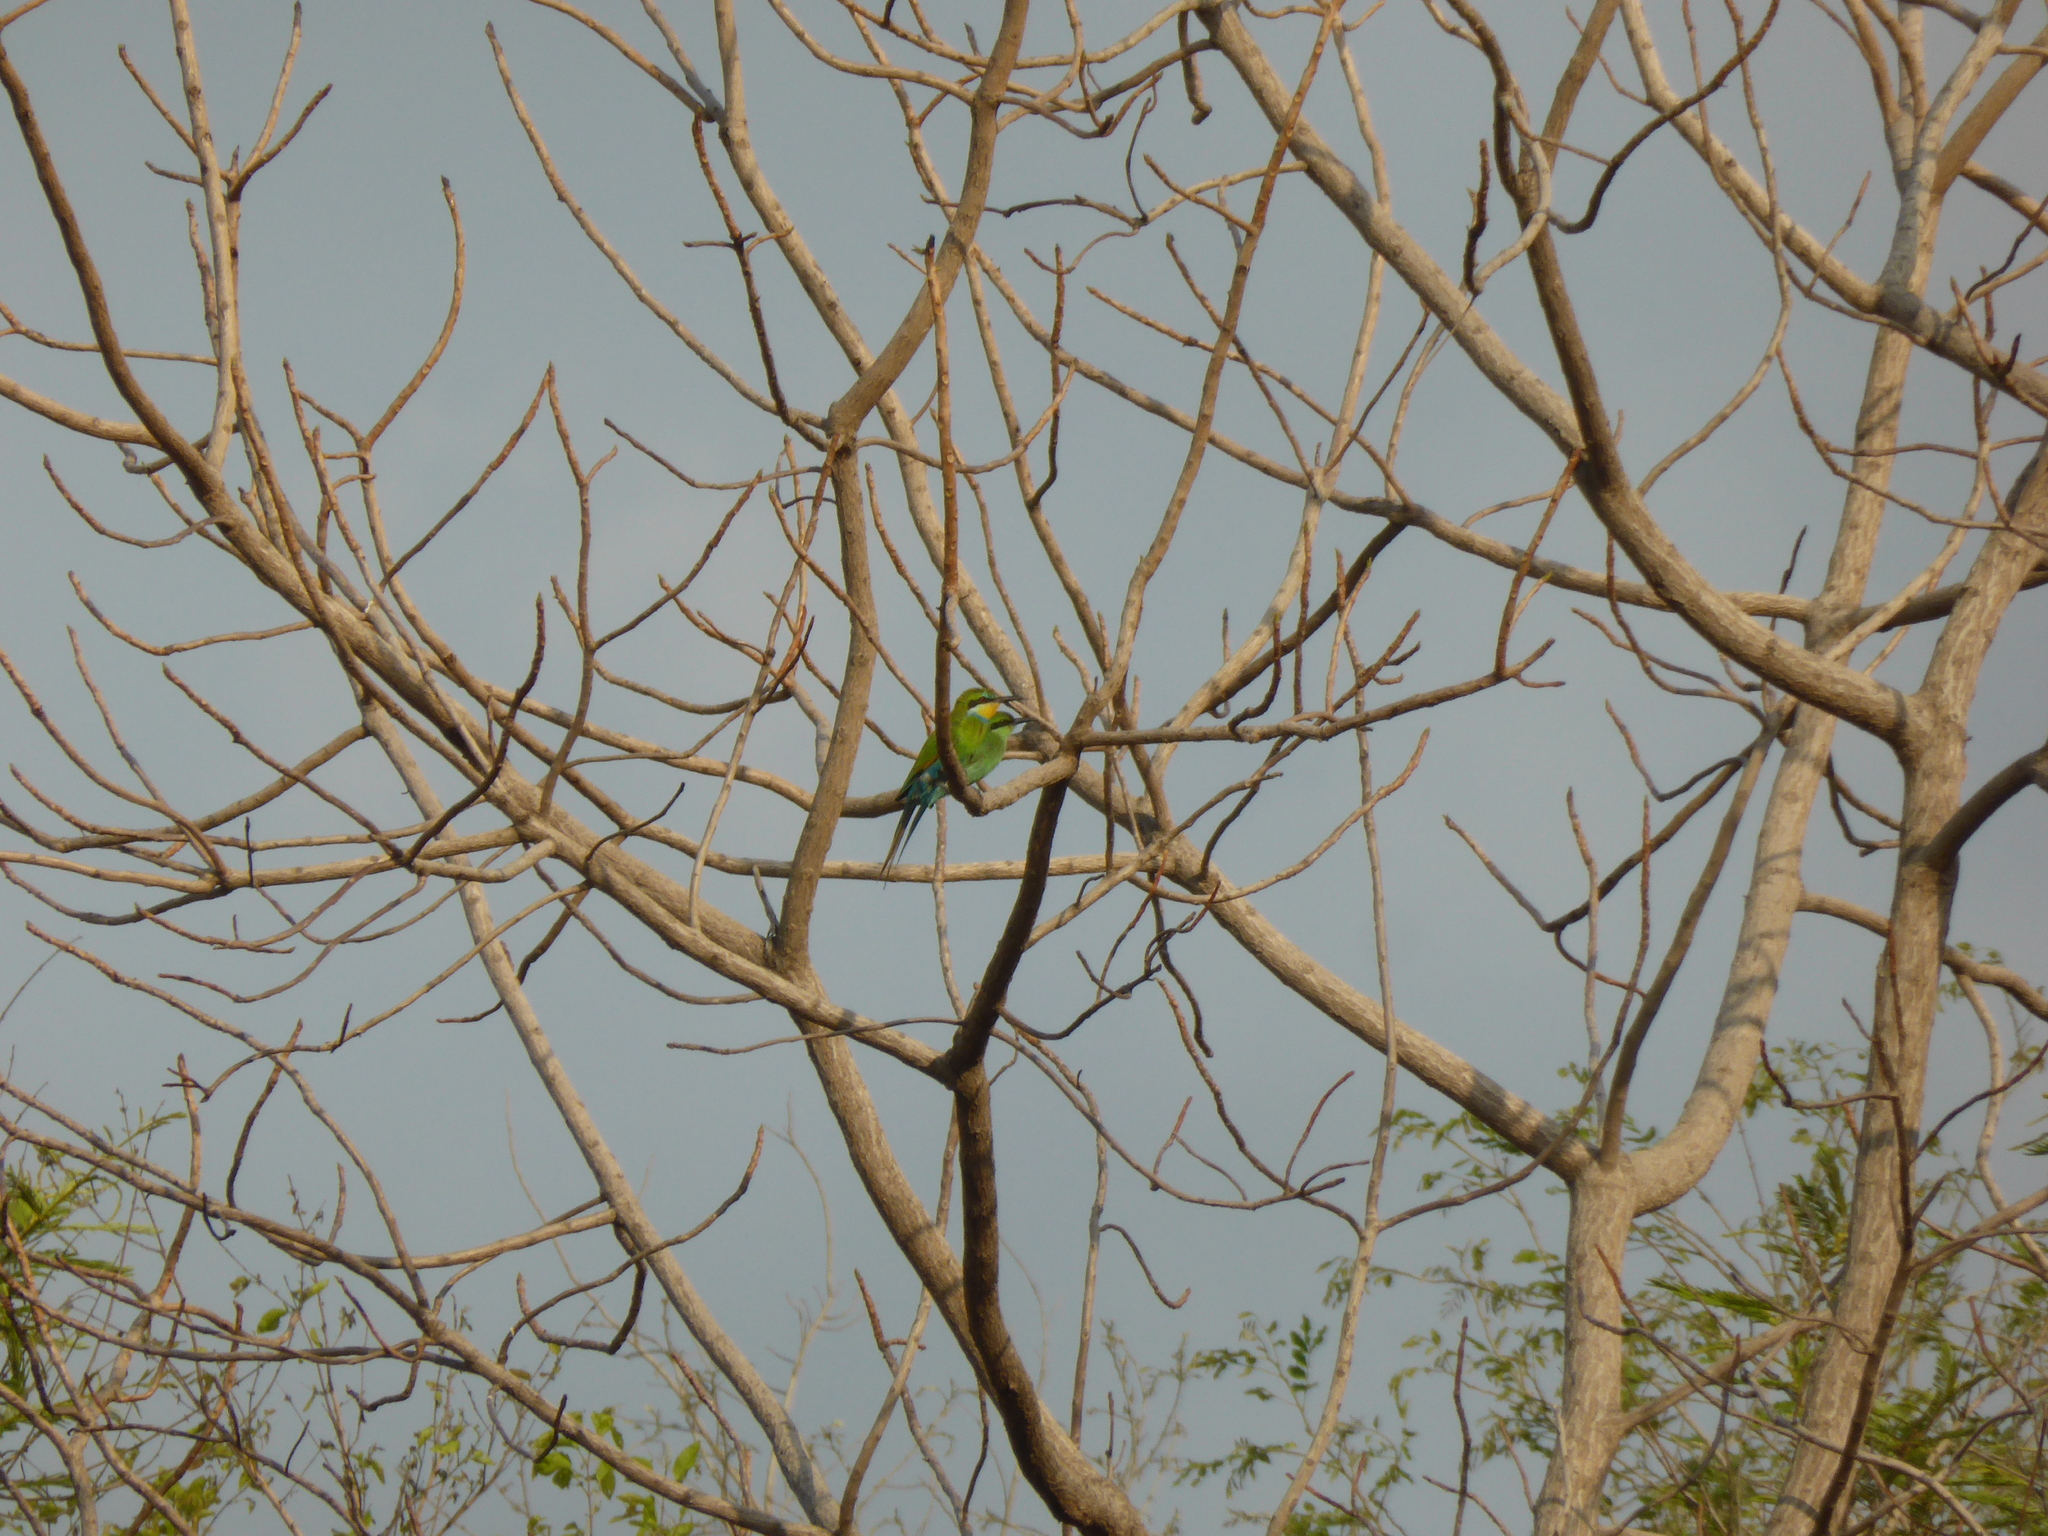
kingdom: Animalia
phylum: Chordata
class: Aves
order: Coraciiformes
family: Meropidae
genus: Merops
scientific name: Merops hirundineus
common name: Swallow-tailed bee-eater
